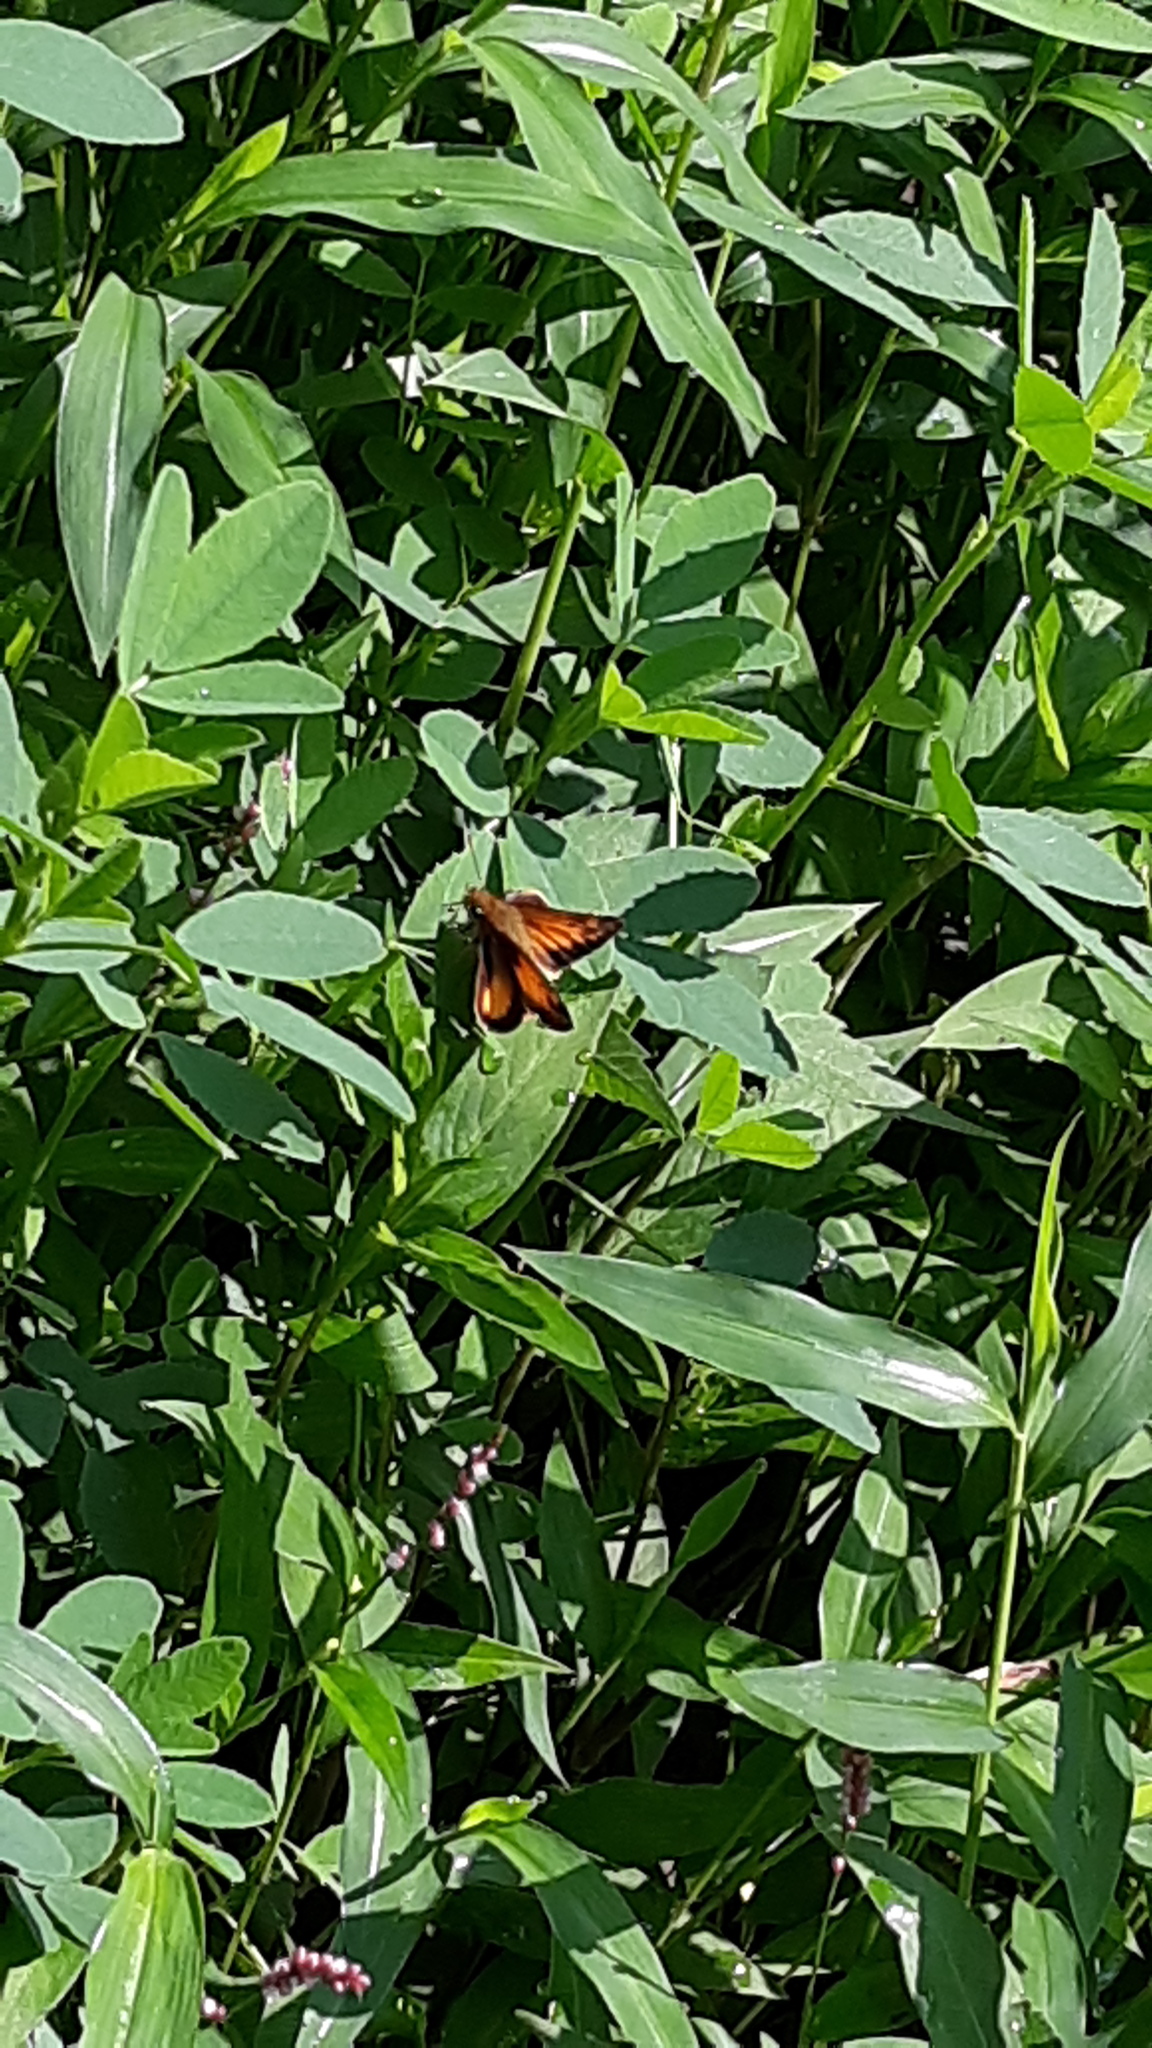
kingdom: Animalia
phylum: Arthropoda
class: Insecta
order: Lepidoptera
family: Hesperiidae
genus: Lon
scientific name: Lon zabulon
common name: Zabulon skipper
